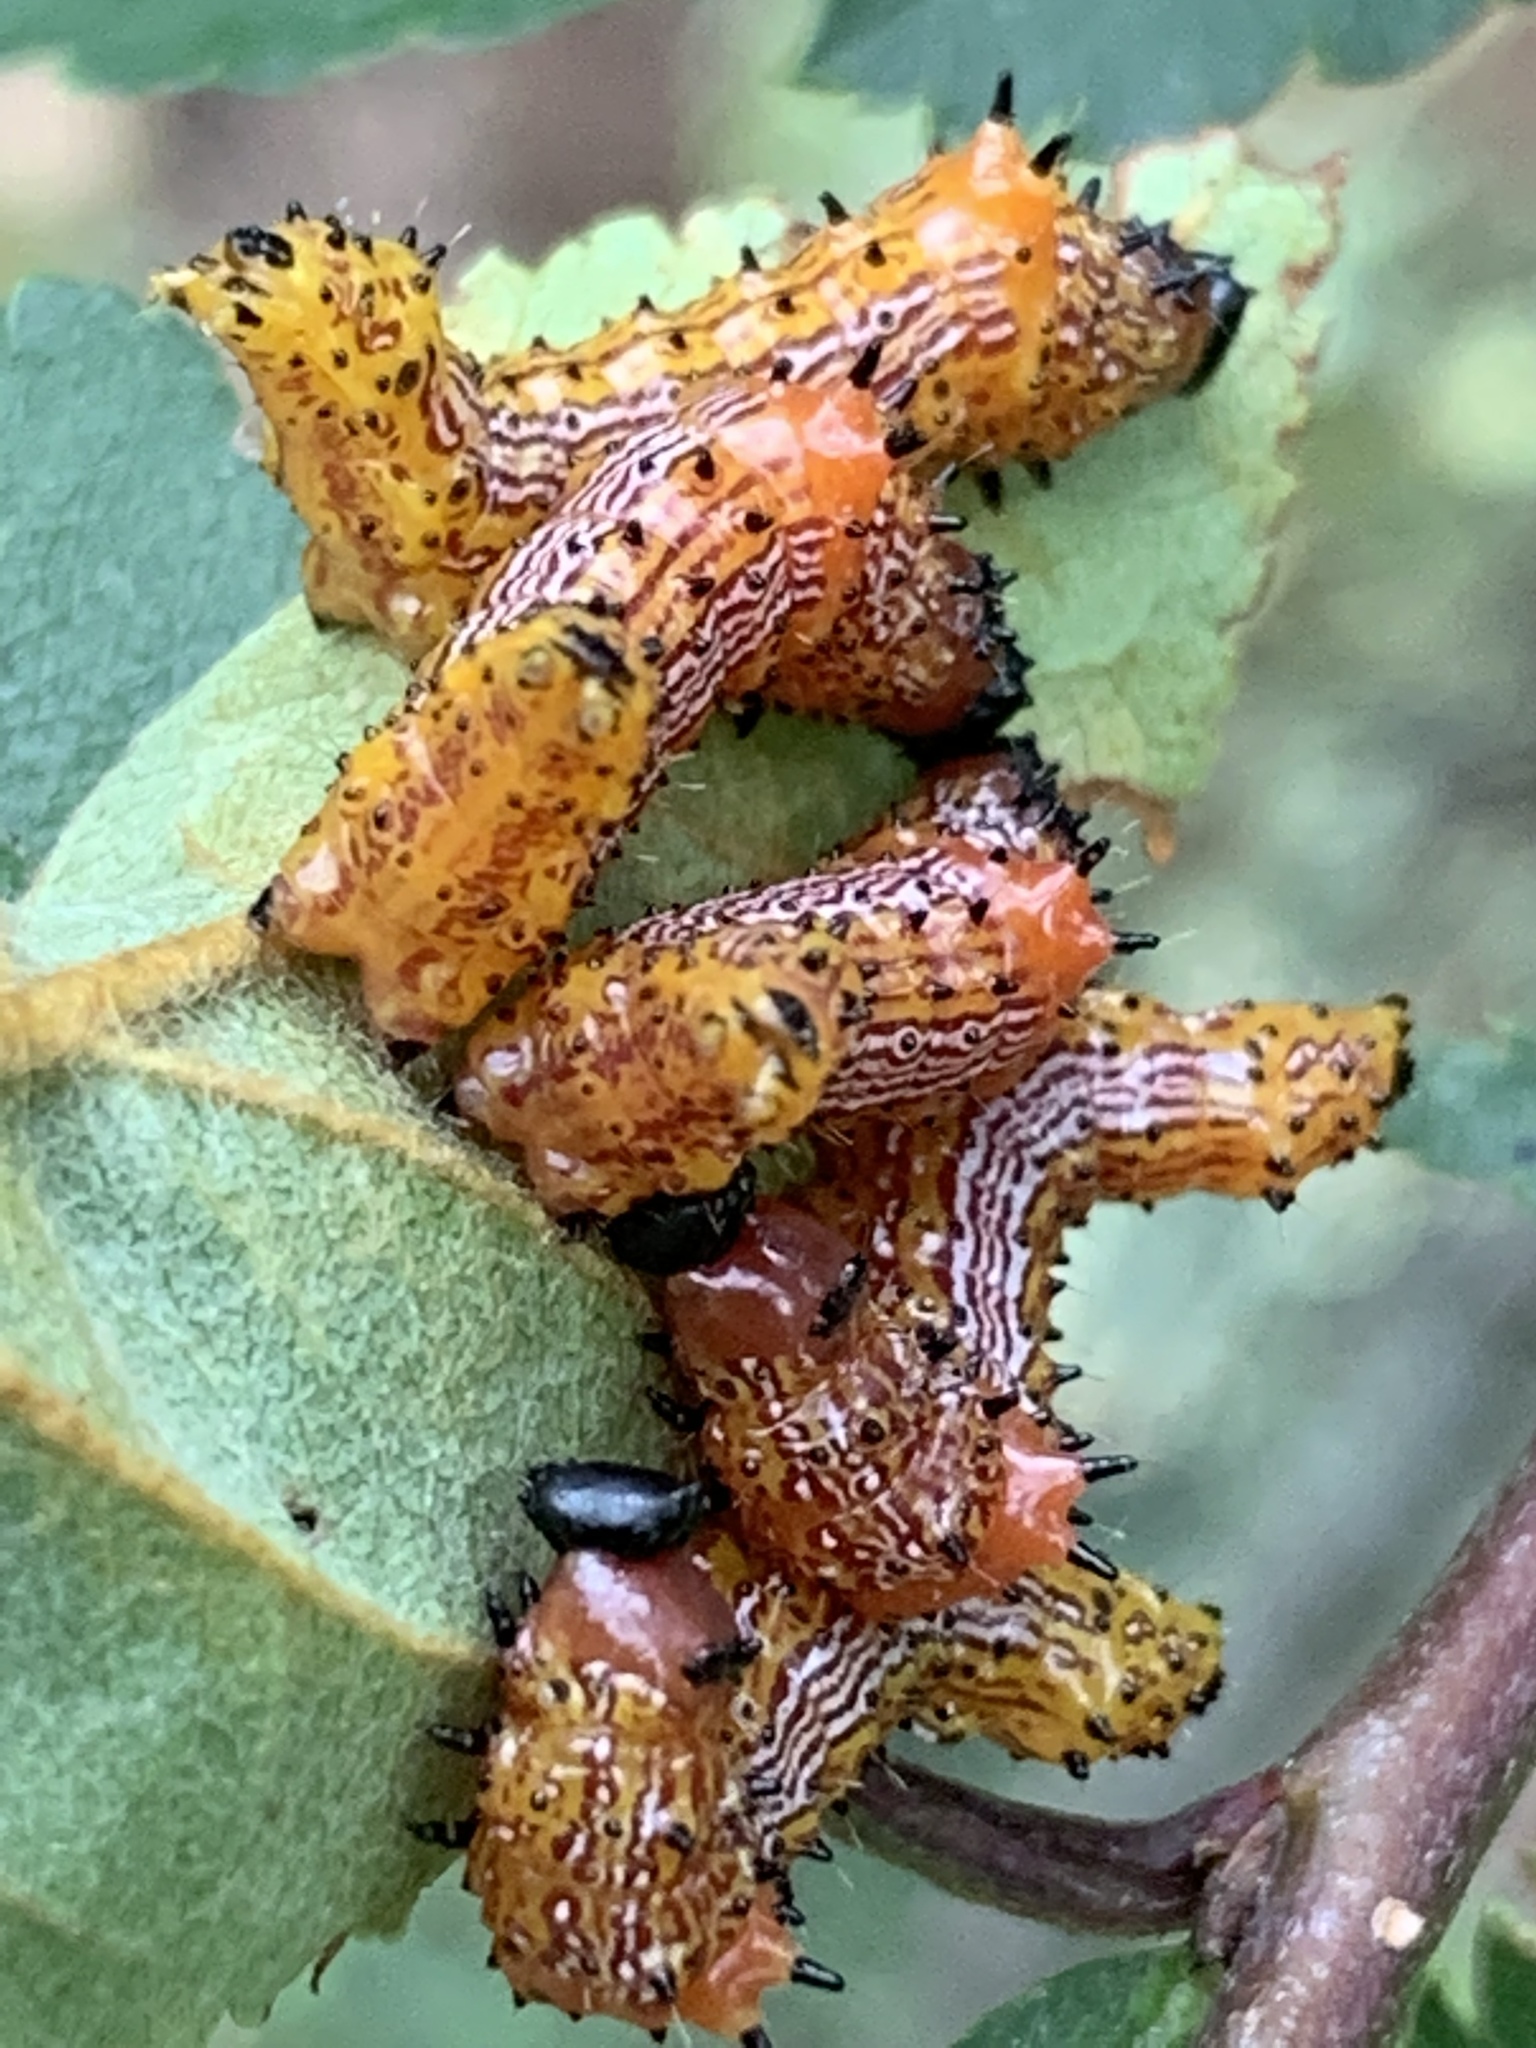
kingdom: Animalia
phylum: Arthropoda
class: Insecta
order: Lepidoptera
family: Notodontidae
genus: Schizura
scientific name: Schizura
